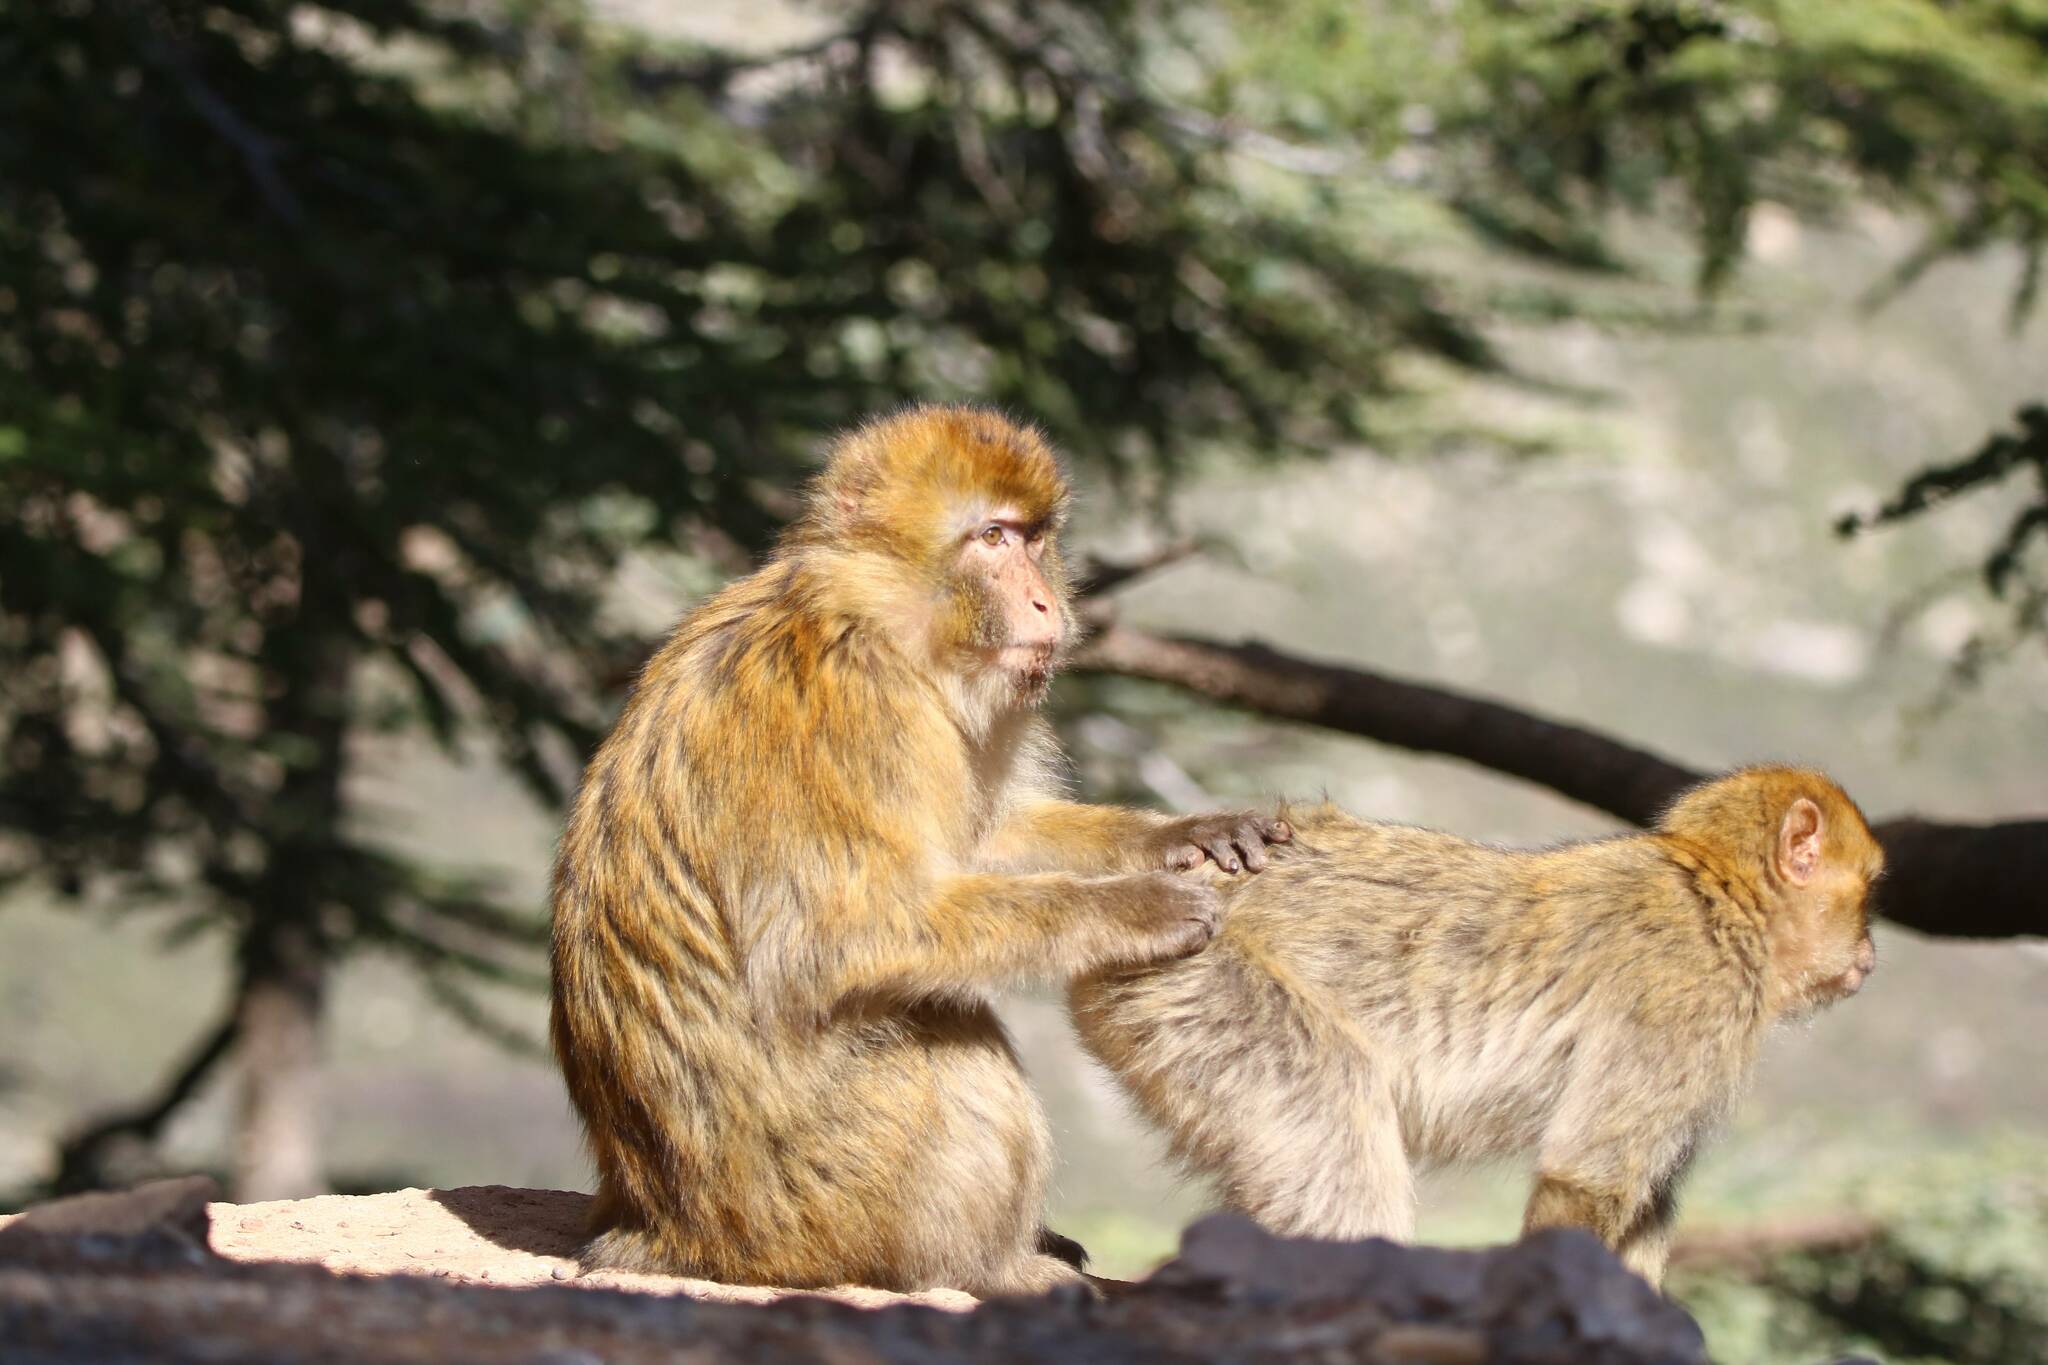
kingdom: Animalia
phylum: Chordata
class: Mammalia
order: Primates
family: Cercopithecidae
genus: Macaca
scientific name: Macaca sylvanus
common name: Barbary macaque
